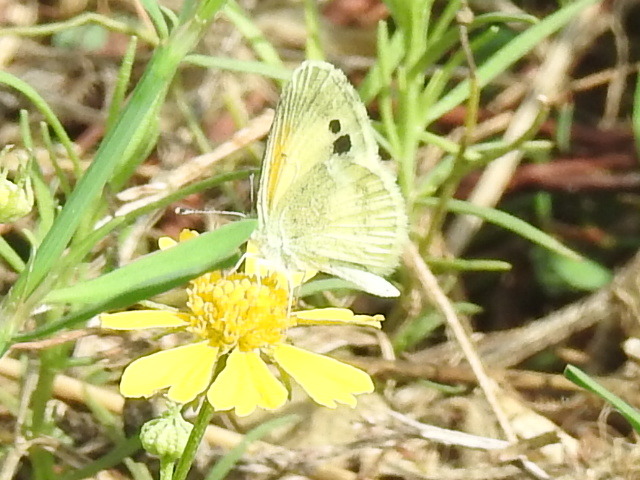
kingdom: Animalia
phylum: Arthropoda
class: Insecta
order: Lepidoptera
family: Pieridae
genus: Nathalis
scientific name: Nathalis iole
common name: Dainty sulphur
